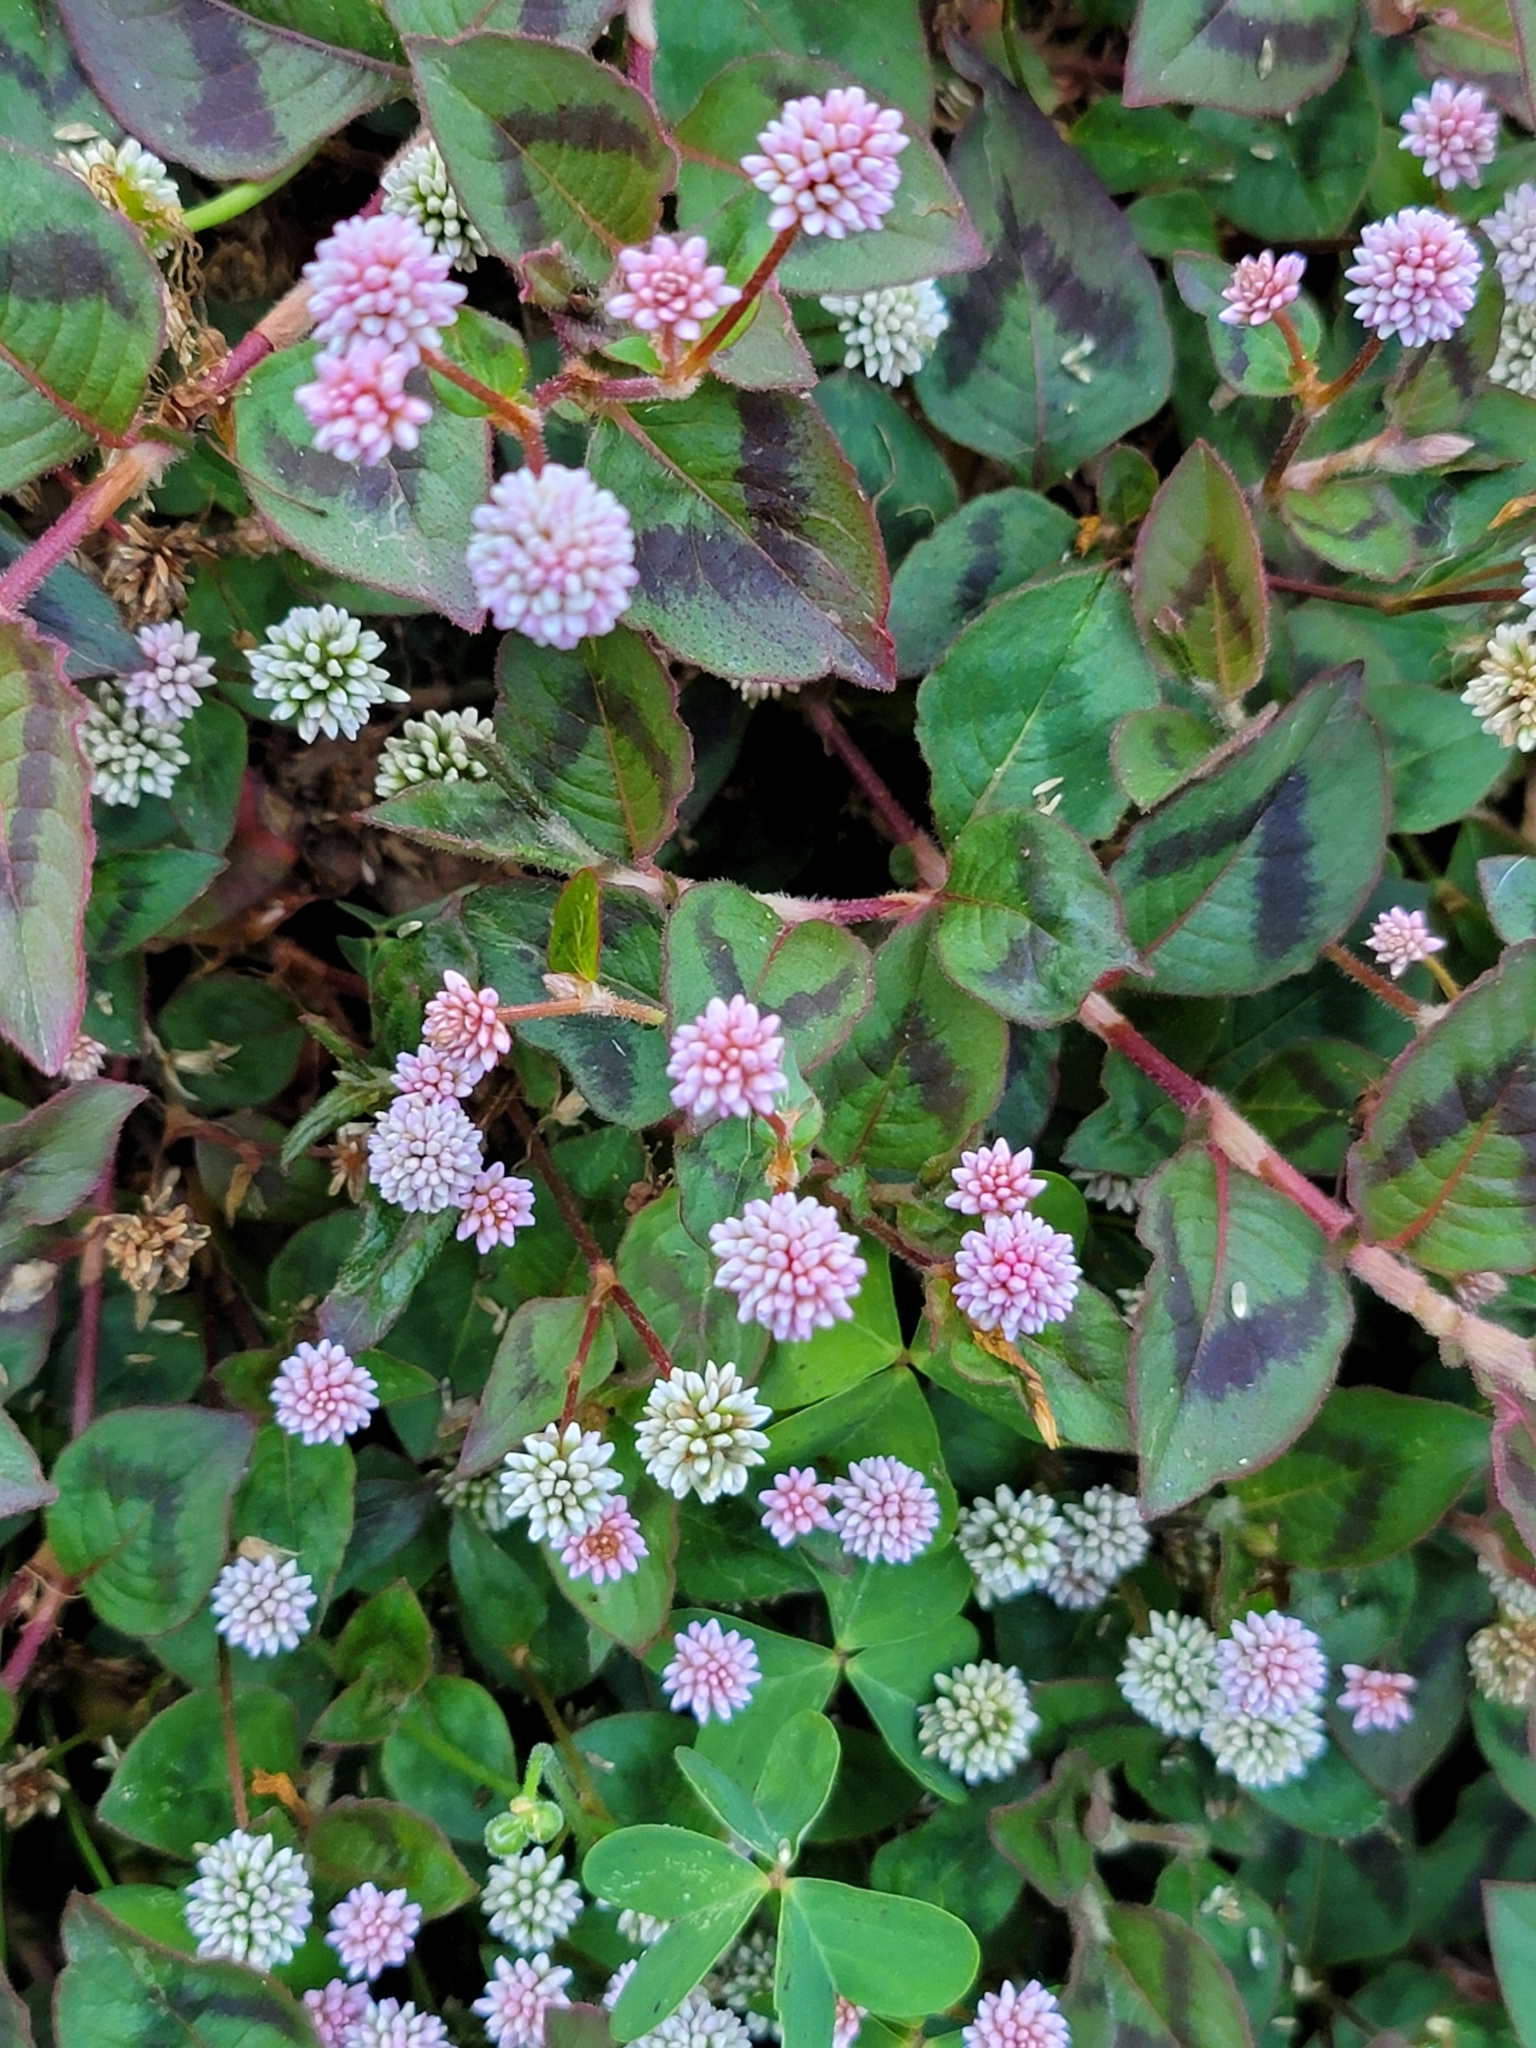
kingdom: Plantae
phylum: Tracheophyta
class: Magnoliopsida
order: Caryophyllales
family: Polygonaceae
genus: Persicaria
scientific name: Persicaria capitata
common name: Pinkhead smartweed
